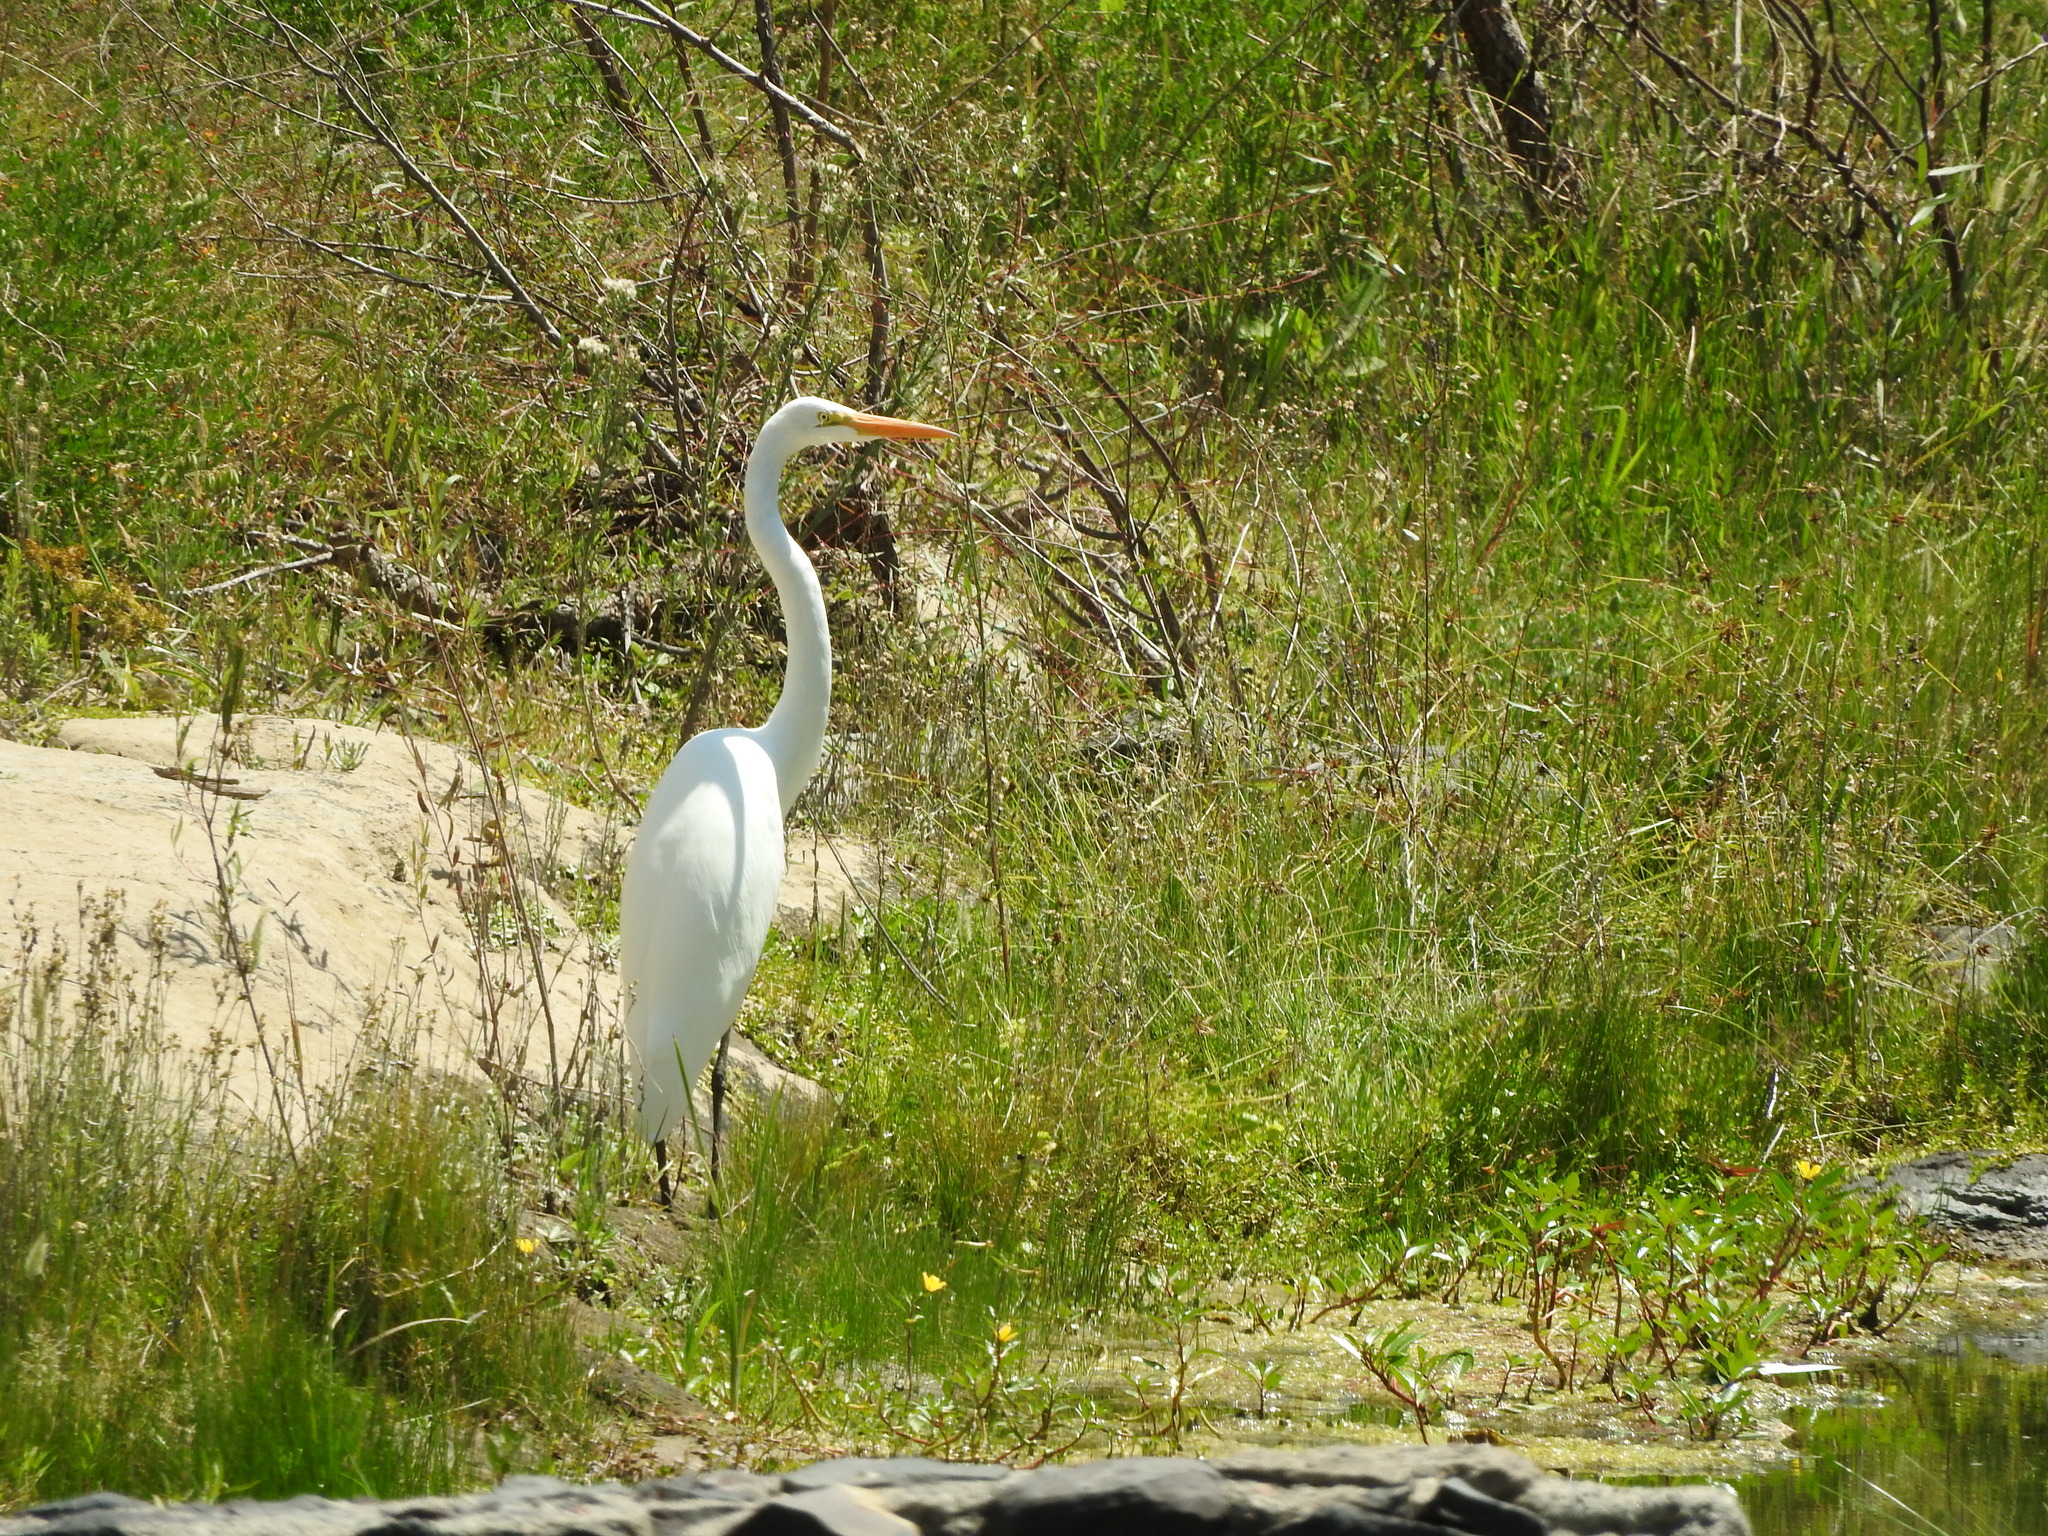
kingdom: Animalia
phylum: Chordata
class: Aves
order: Pelecaniformes
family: Ardeidae
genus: Ardea
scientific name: Ardea alba
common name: Great egret
